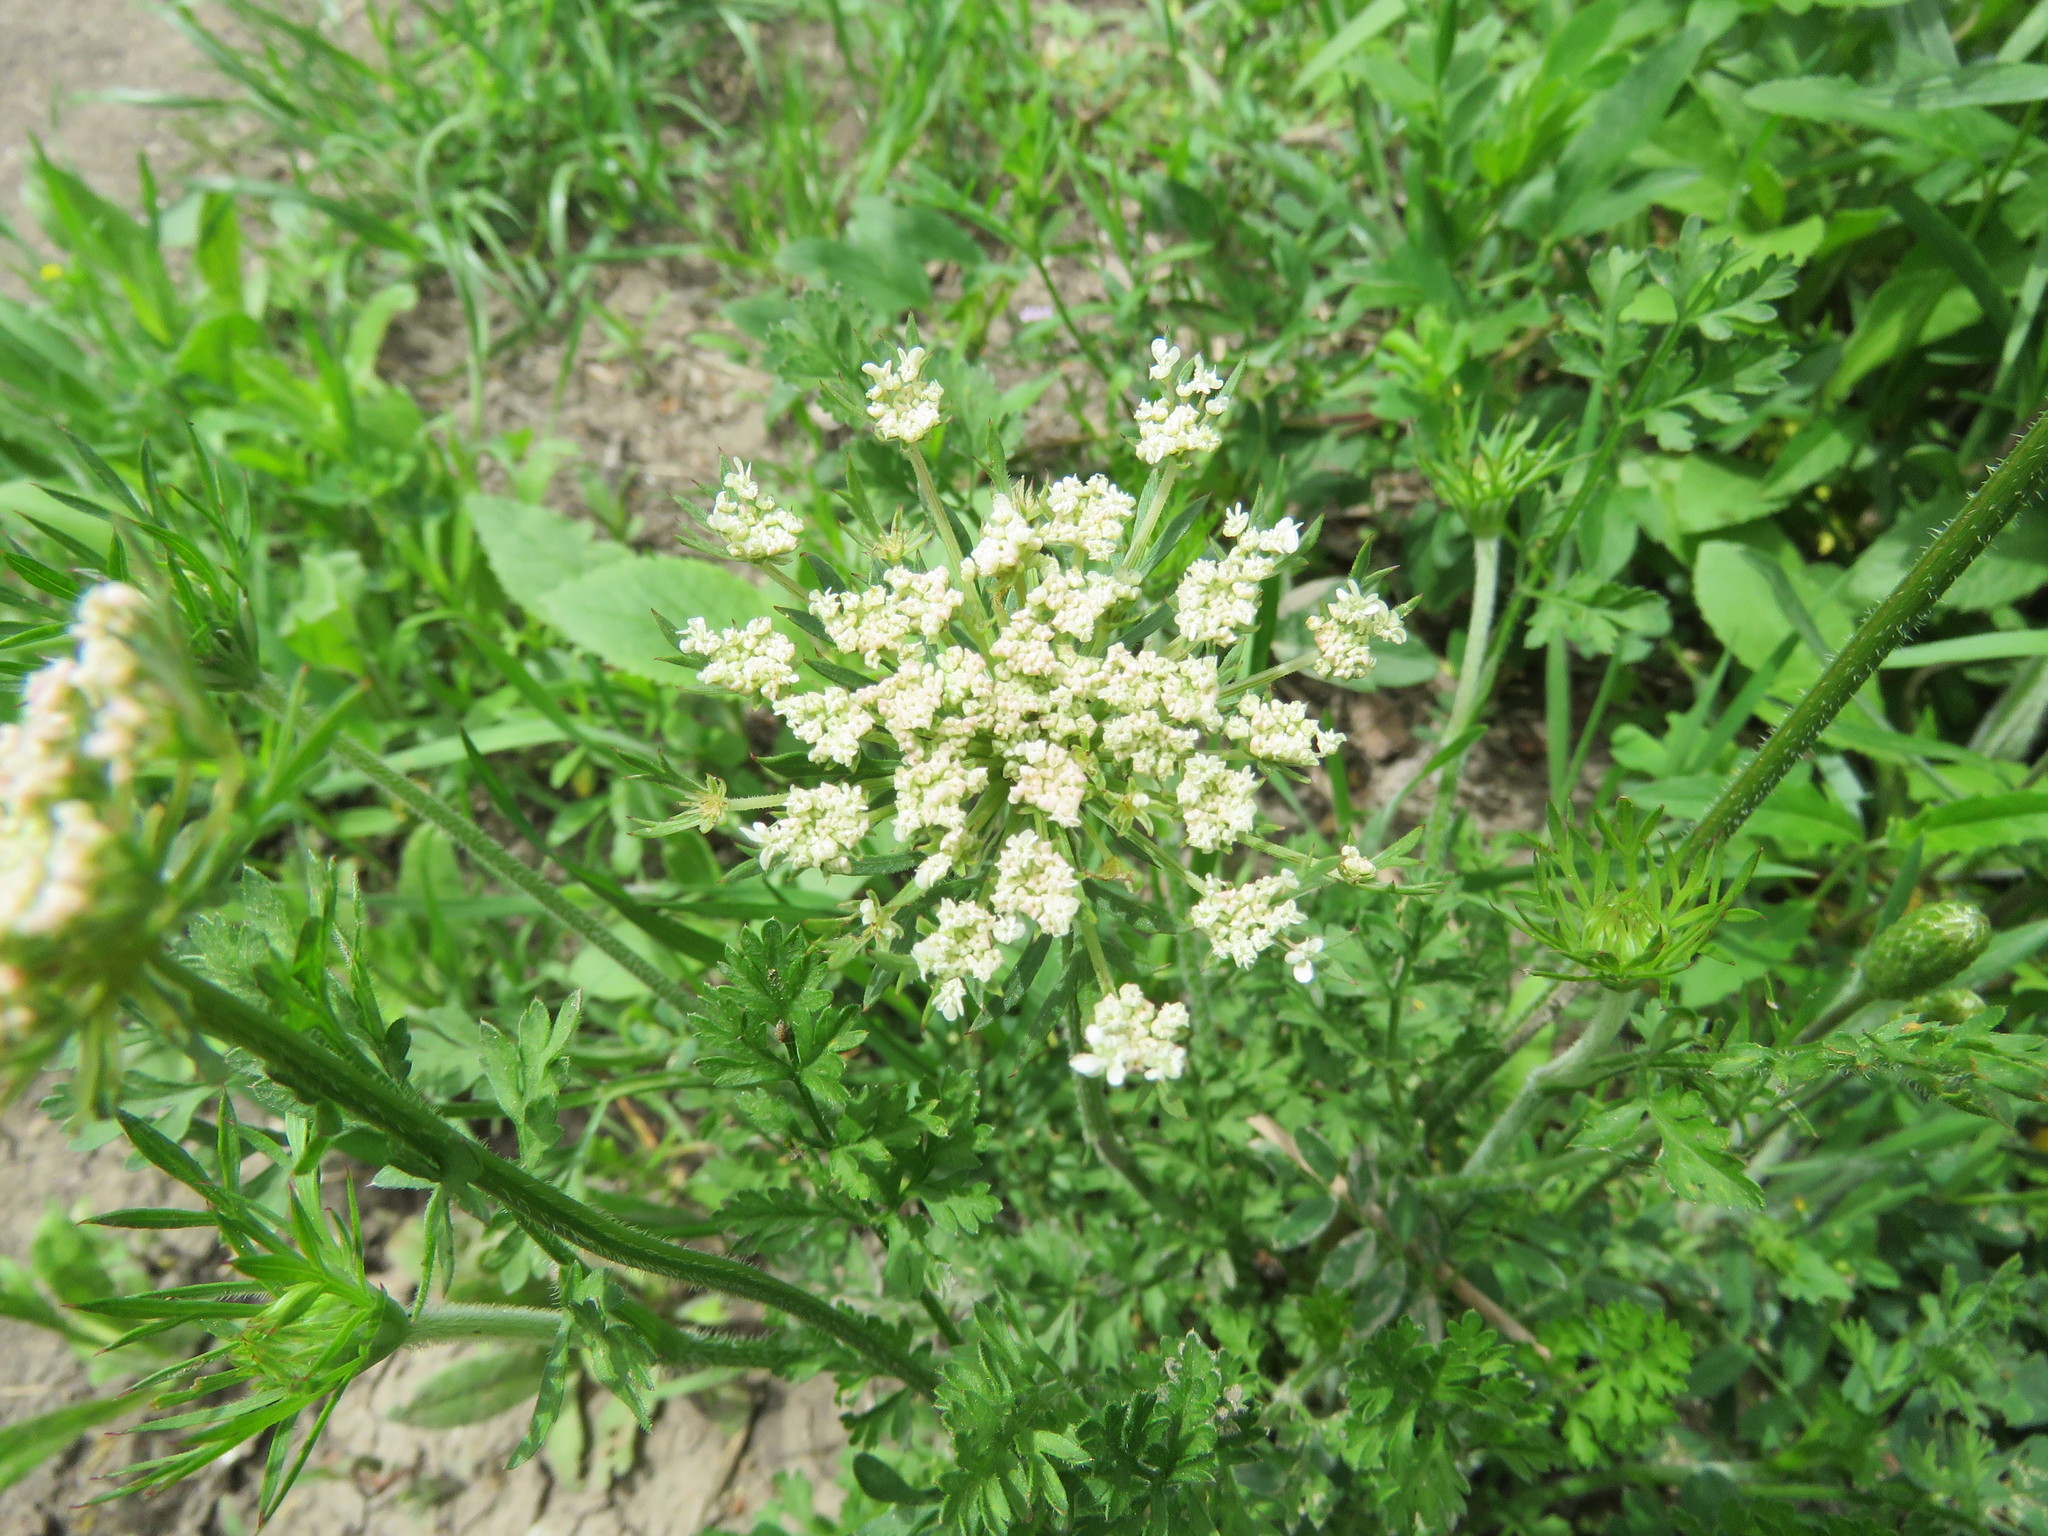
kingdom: Plantae
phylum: Tracheophyta
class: Magnoliopsida
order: Apiales
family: Apiaceae
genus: Daucus
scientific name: Daucus carota
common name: Wild carrot
